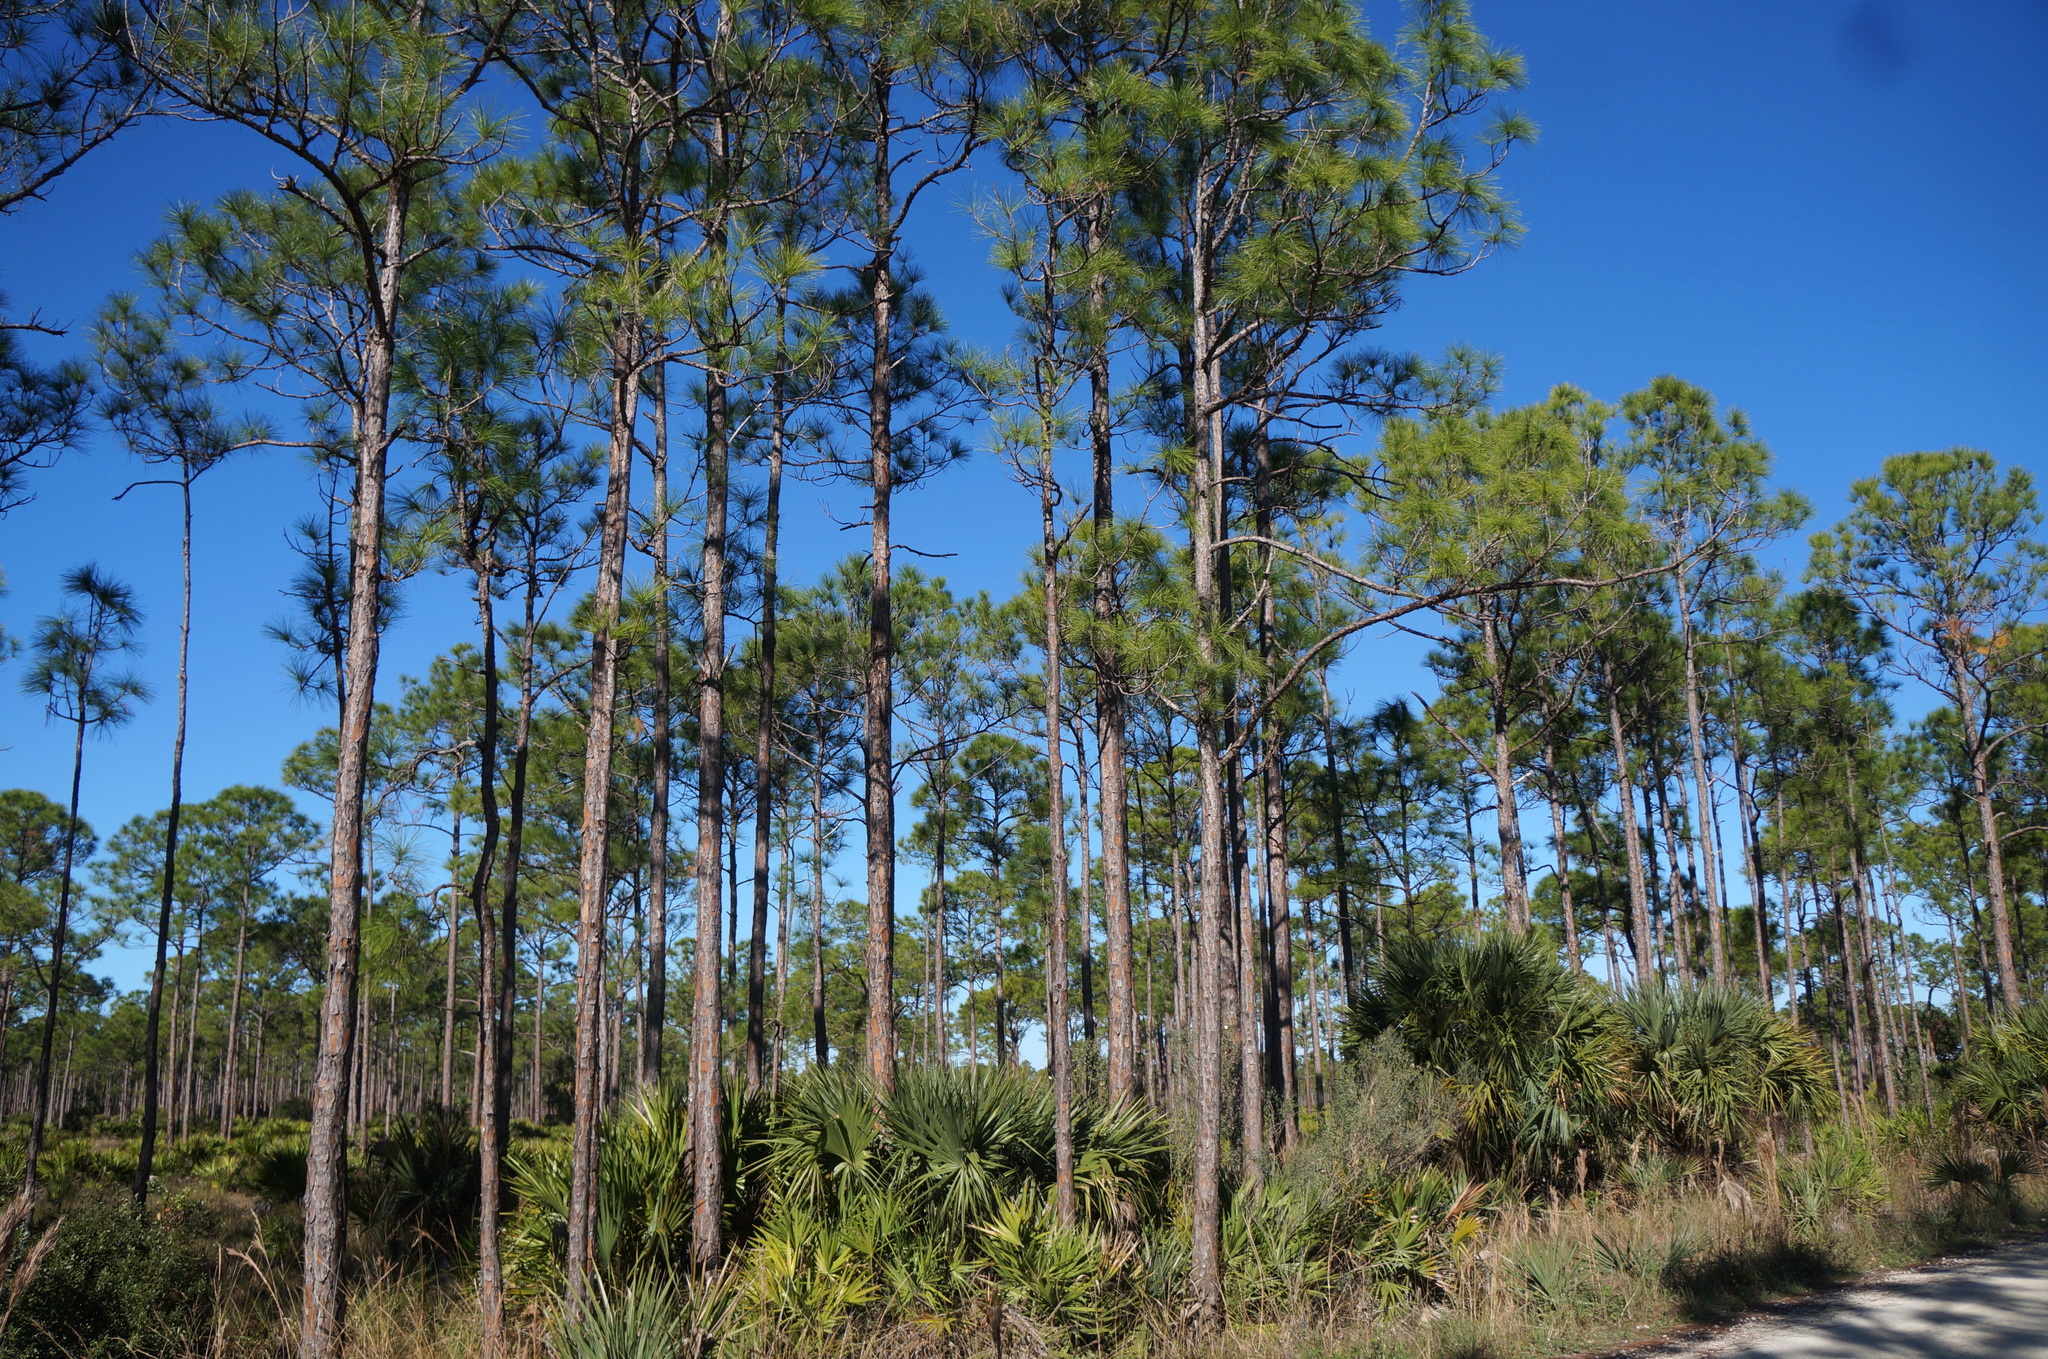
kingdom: Plantae
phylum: Tracheophyta
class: Pinopsida
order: Pinales
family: Pinaceae
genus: Pinus
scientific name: Pinus elliottii
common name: Slash pine
